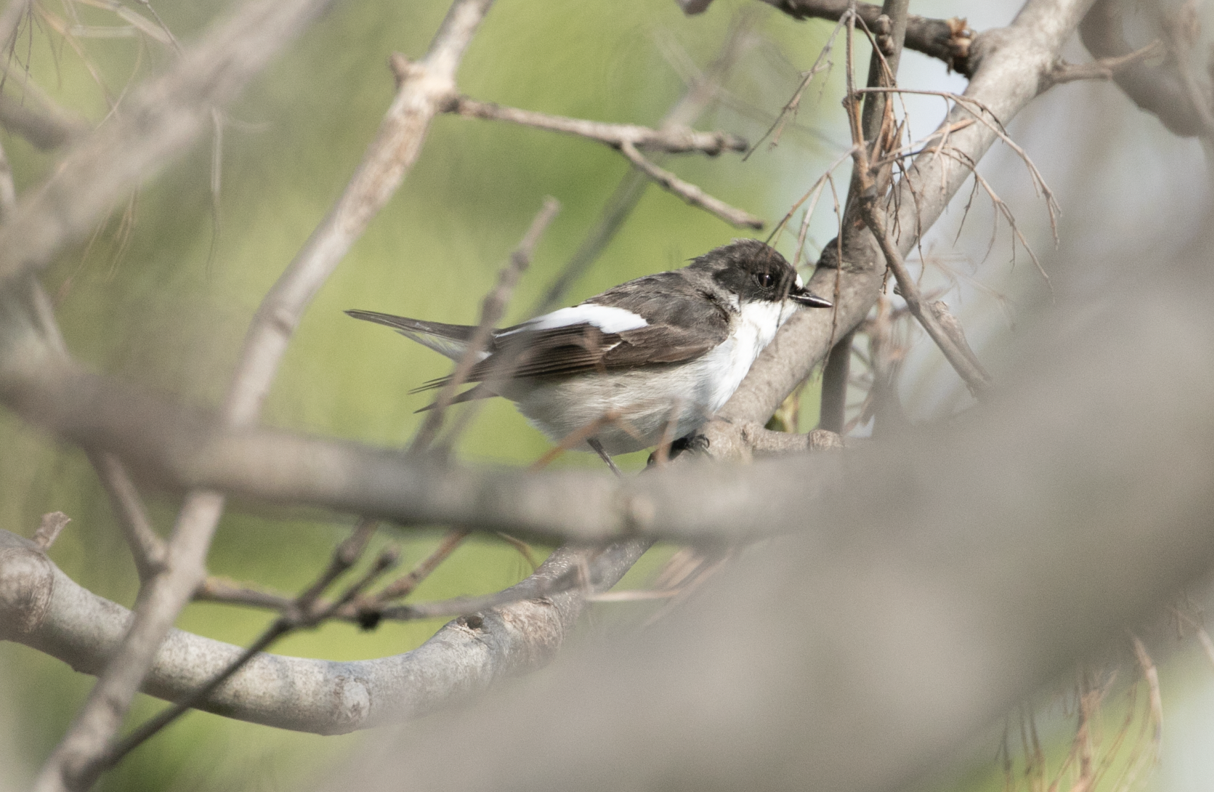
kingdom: Animalia
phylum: Chordata
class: Aves
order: Passeriformes
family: Muscicapidae
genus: Ficedula
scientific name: Ficedula hypoleuca
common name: European pied flycatcher
